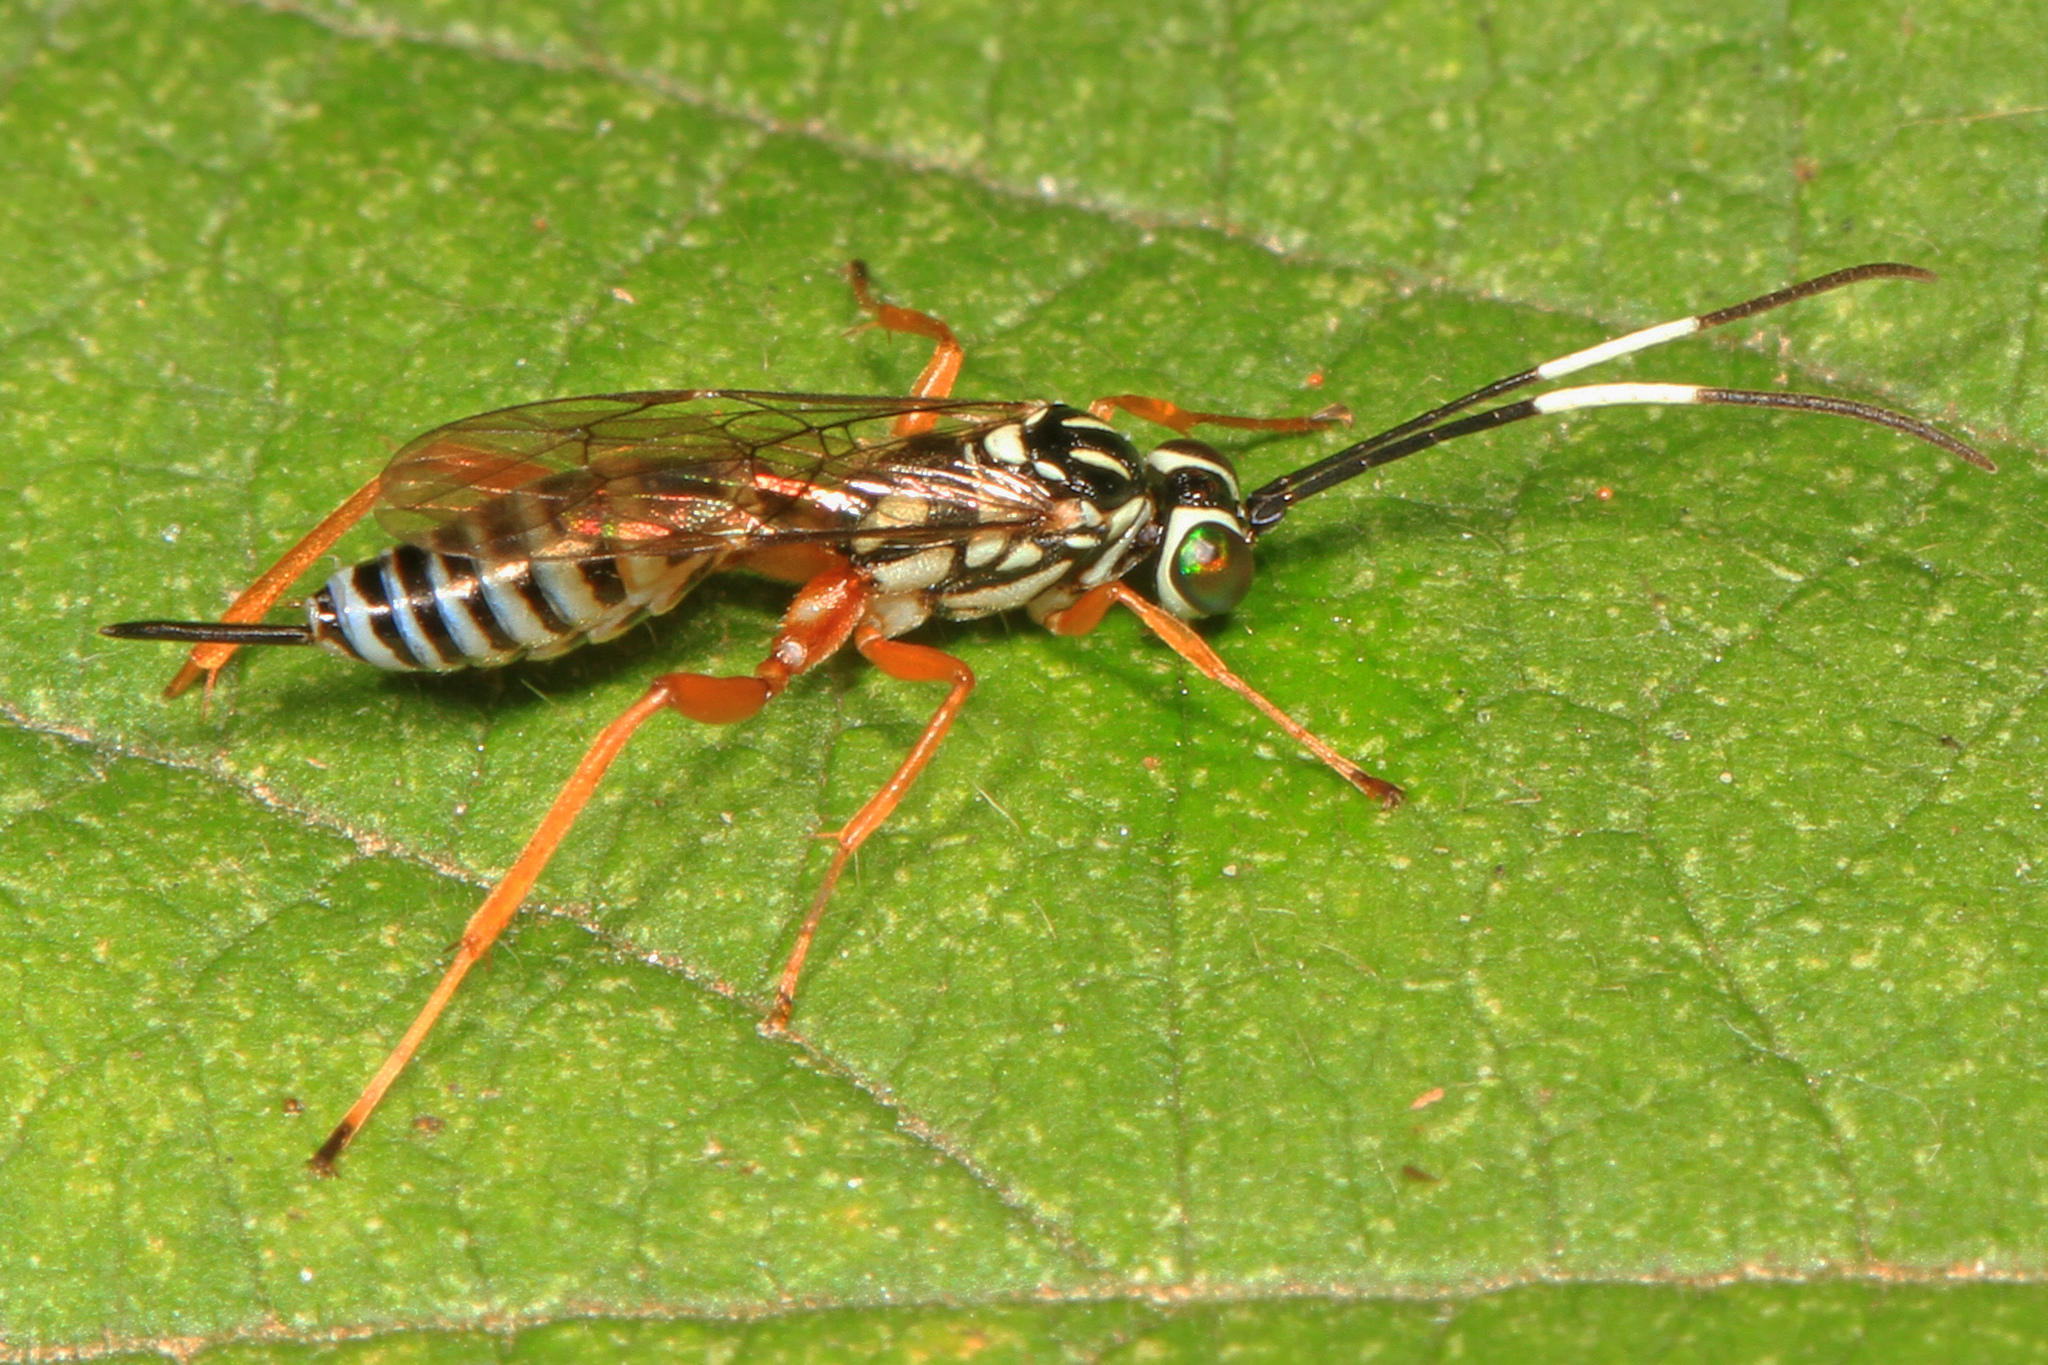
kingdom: Animalia
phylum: Arthropoda
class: Insecta
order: Hymenoptera
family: Ichneumonidae
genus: Lymeon
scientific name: Lymeon orbus
